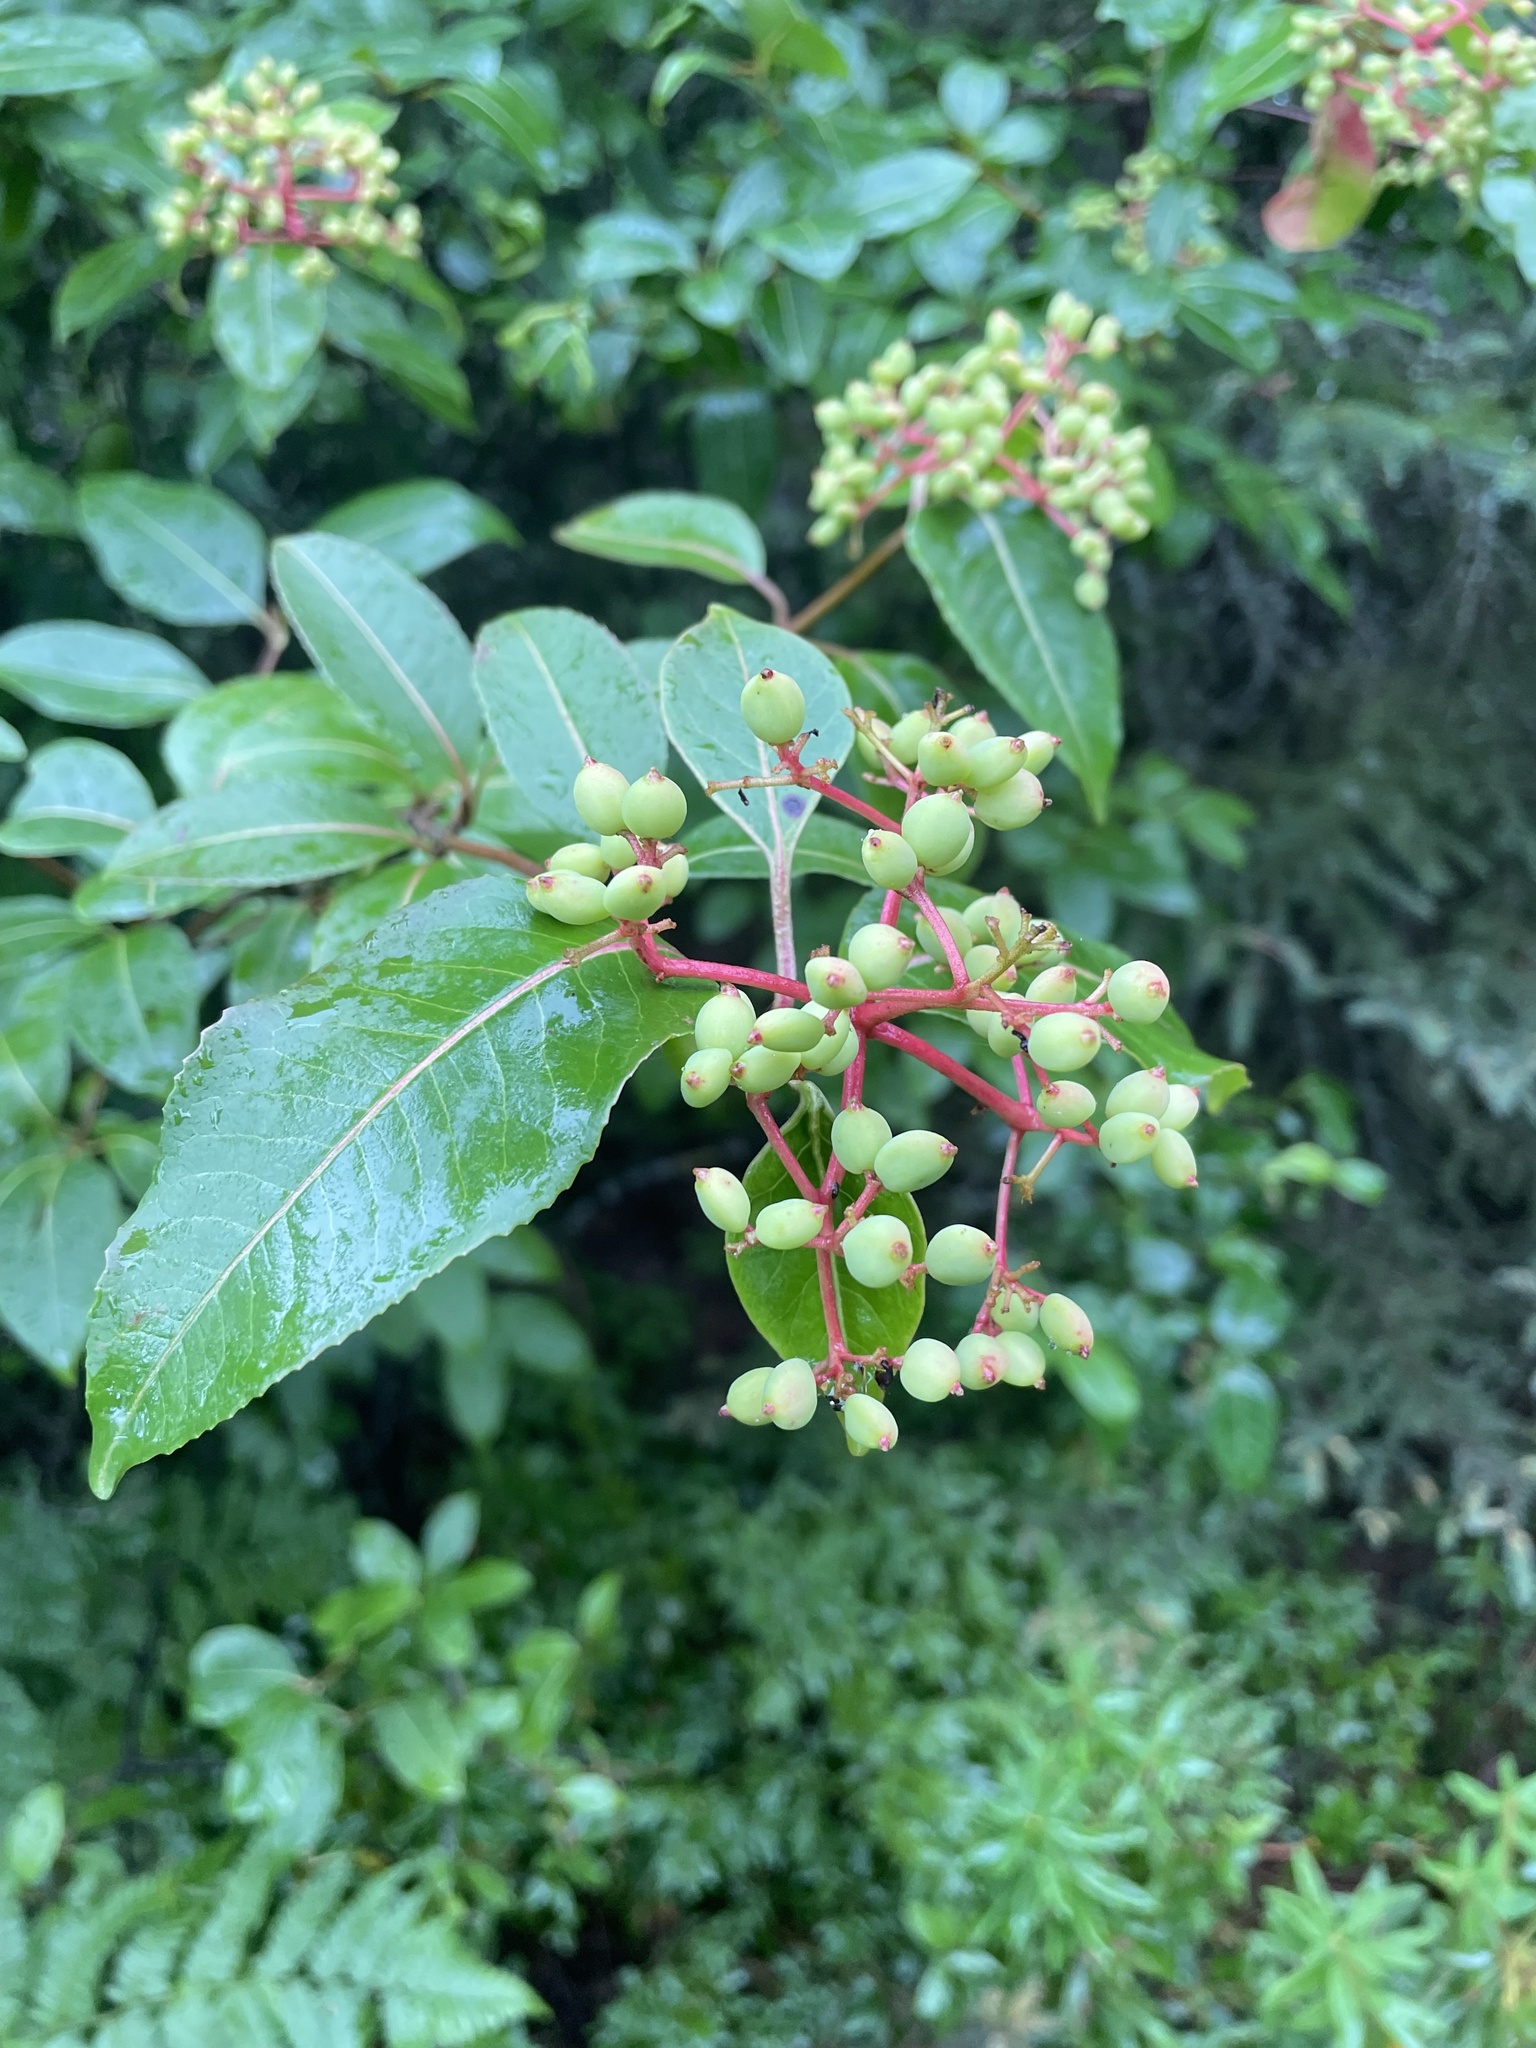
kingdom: Plantae
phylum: Tracheophyta
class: Magnoliopsida
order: Dipsacales
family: Viburnaceae
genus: Viburnum
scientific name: Viburnum cassinoides
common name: Swamp haw
